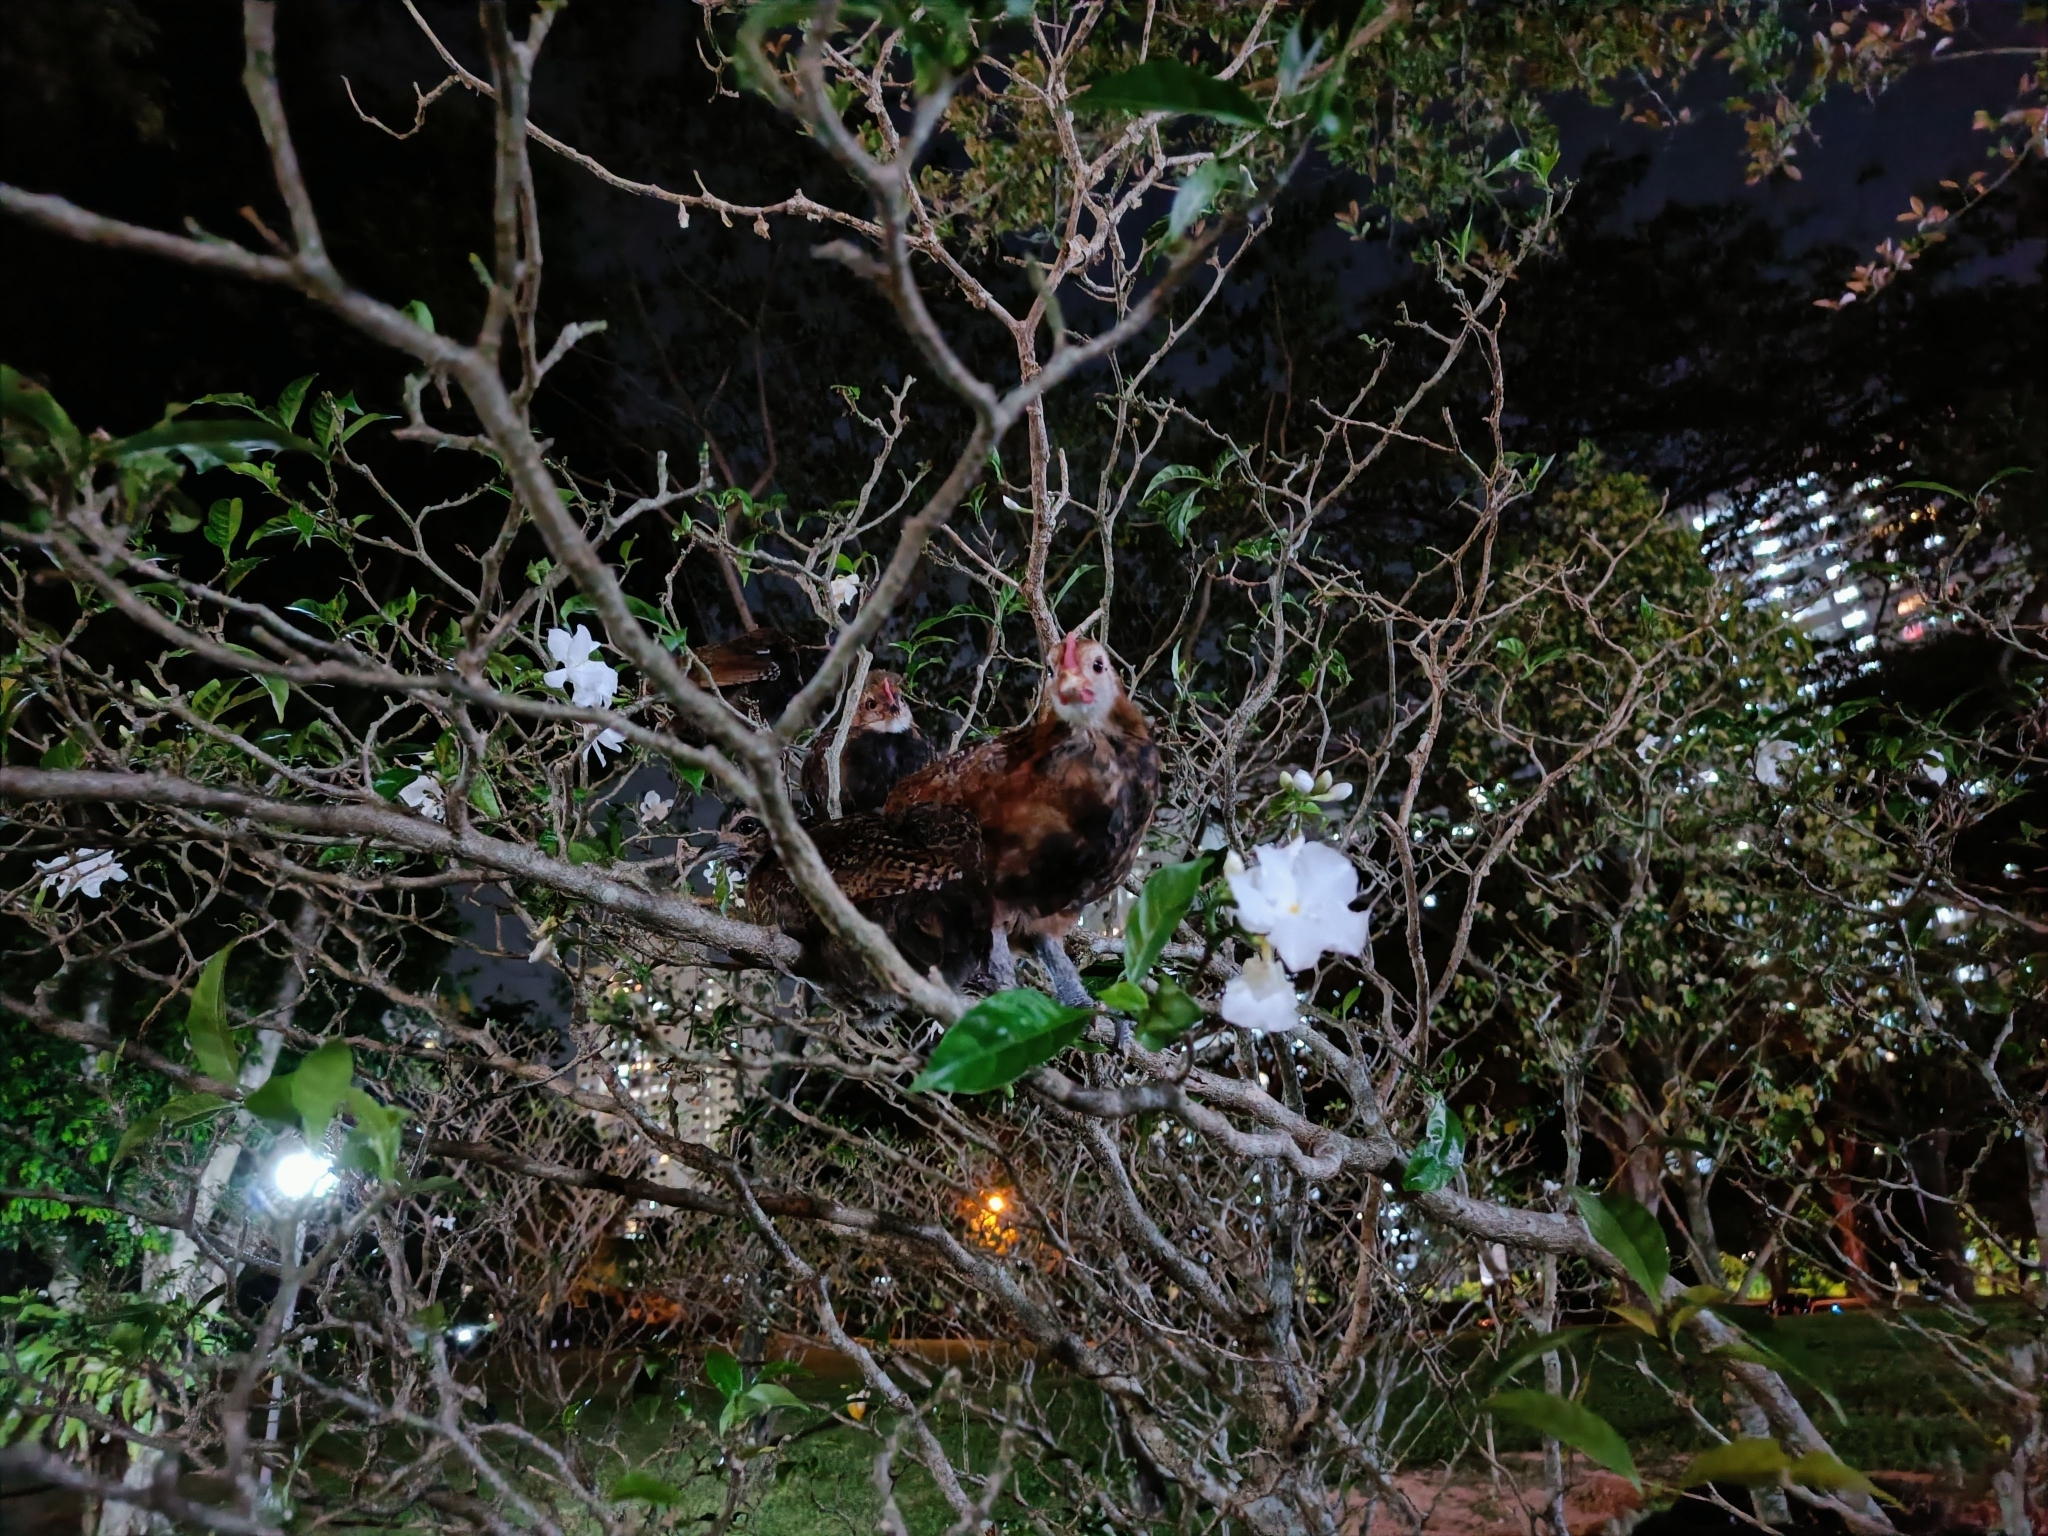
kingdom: Animalia
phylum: Chordata
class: Aves
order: Galliformes
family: Phasianidae
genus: Gallus
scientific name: Gallus gallus
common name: Red junglefowl
